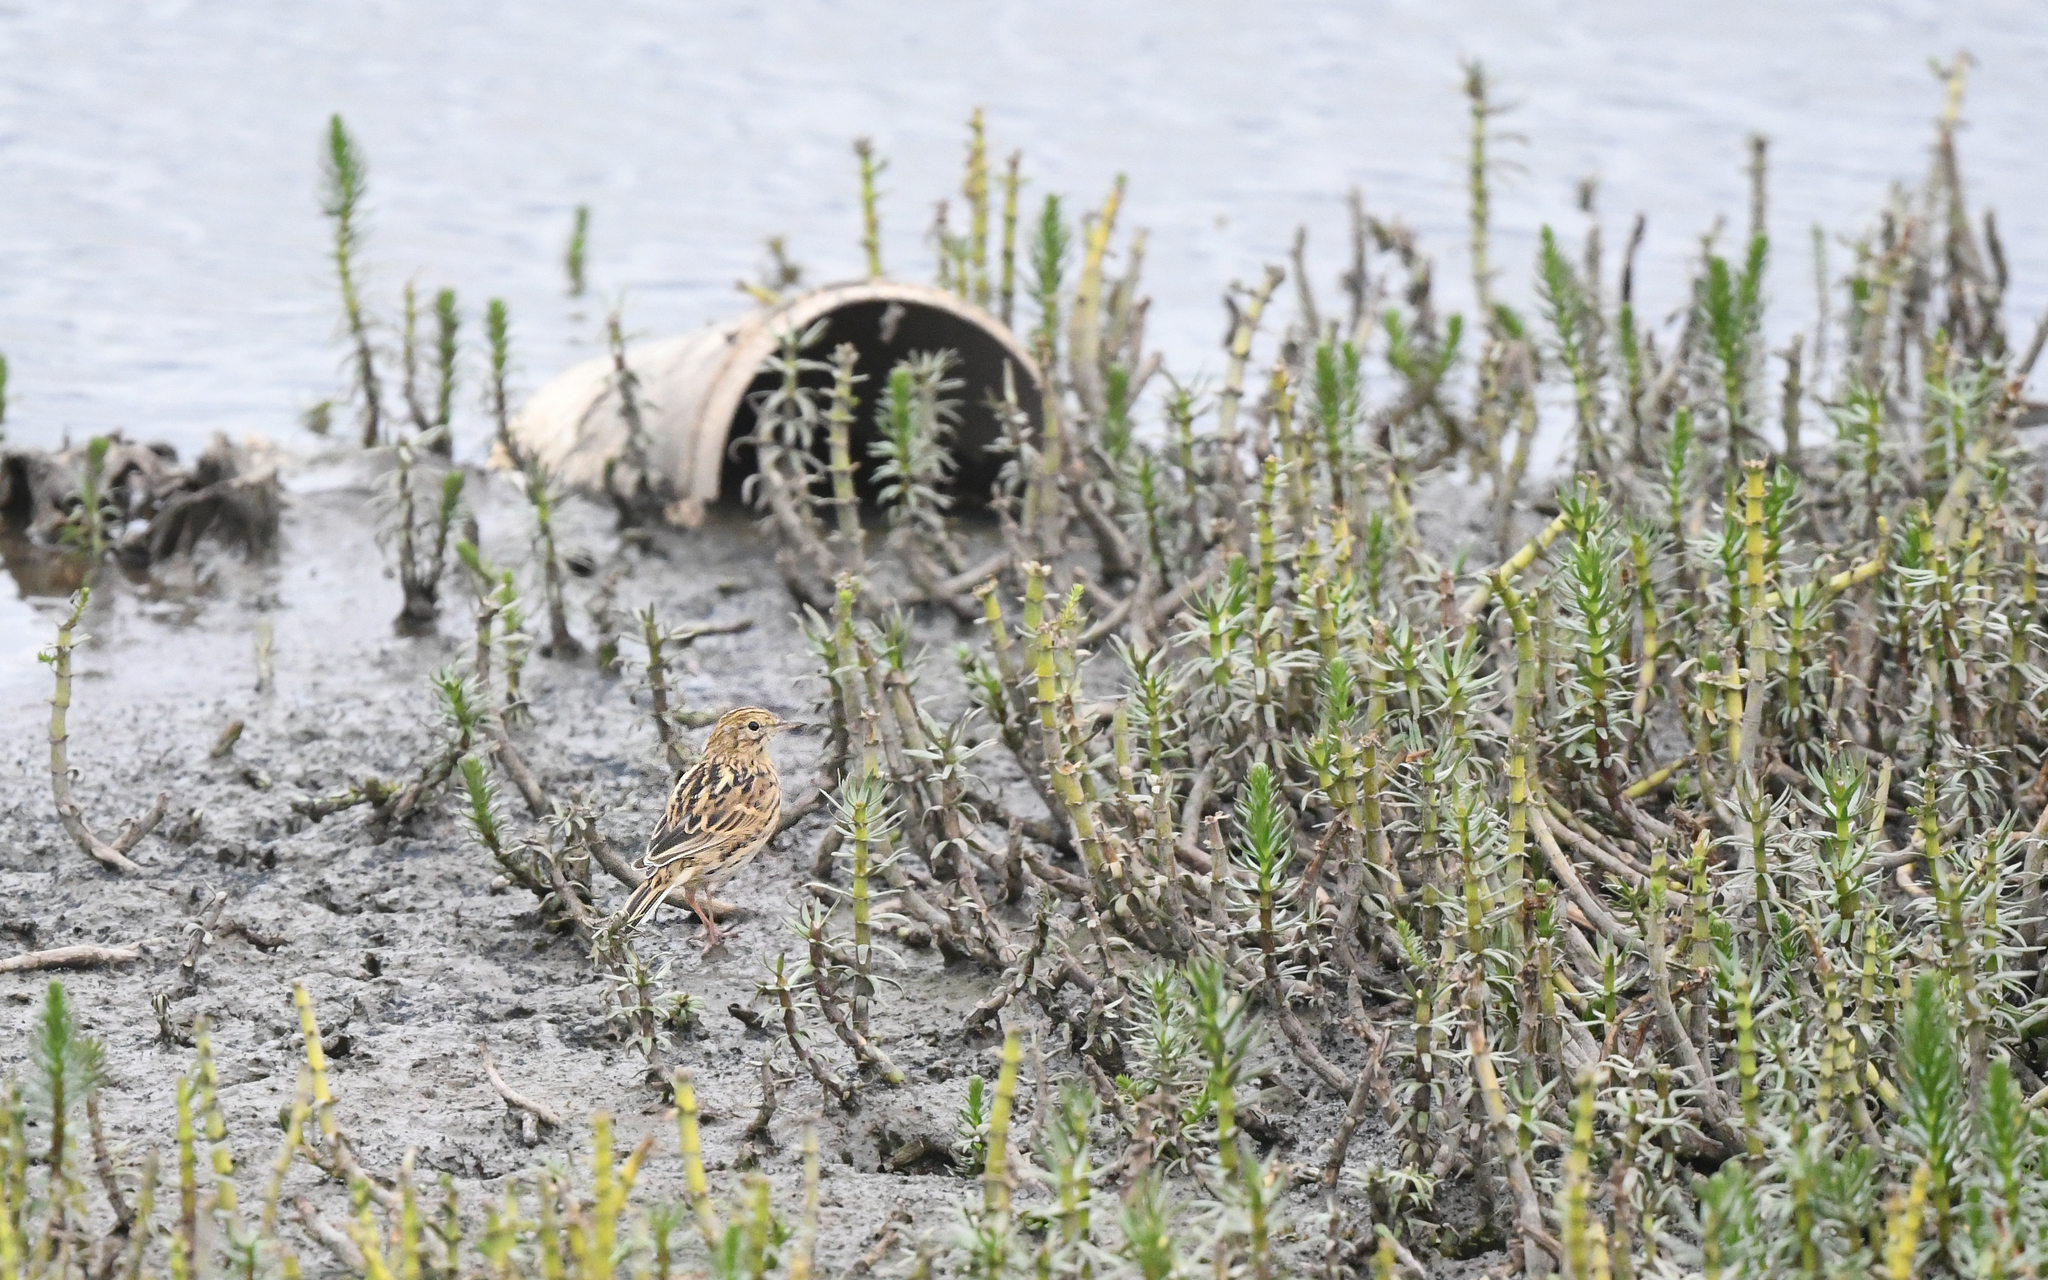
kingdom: Animalia
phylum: Chordata
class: Aves
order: Passeriformes
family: Motacillidae
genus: Anthus
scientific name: Anthus correndera
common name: Correndera pipit
